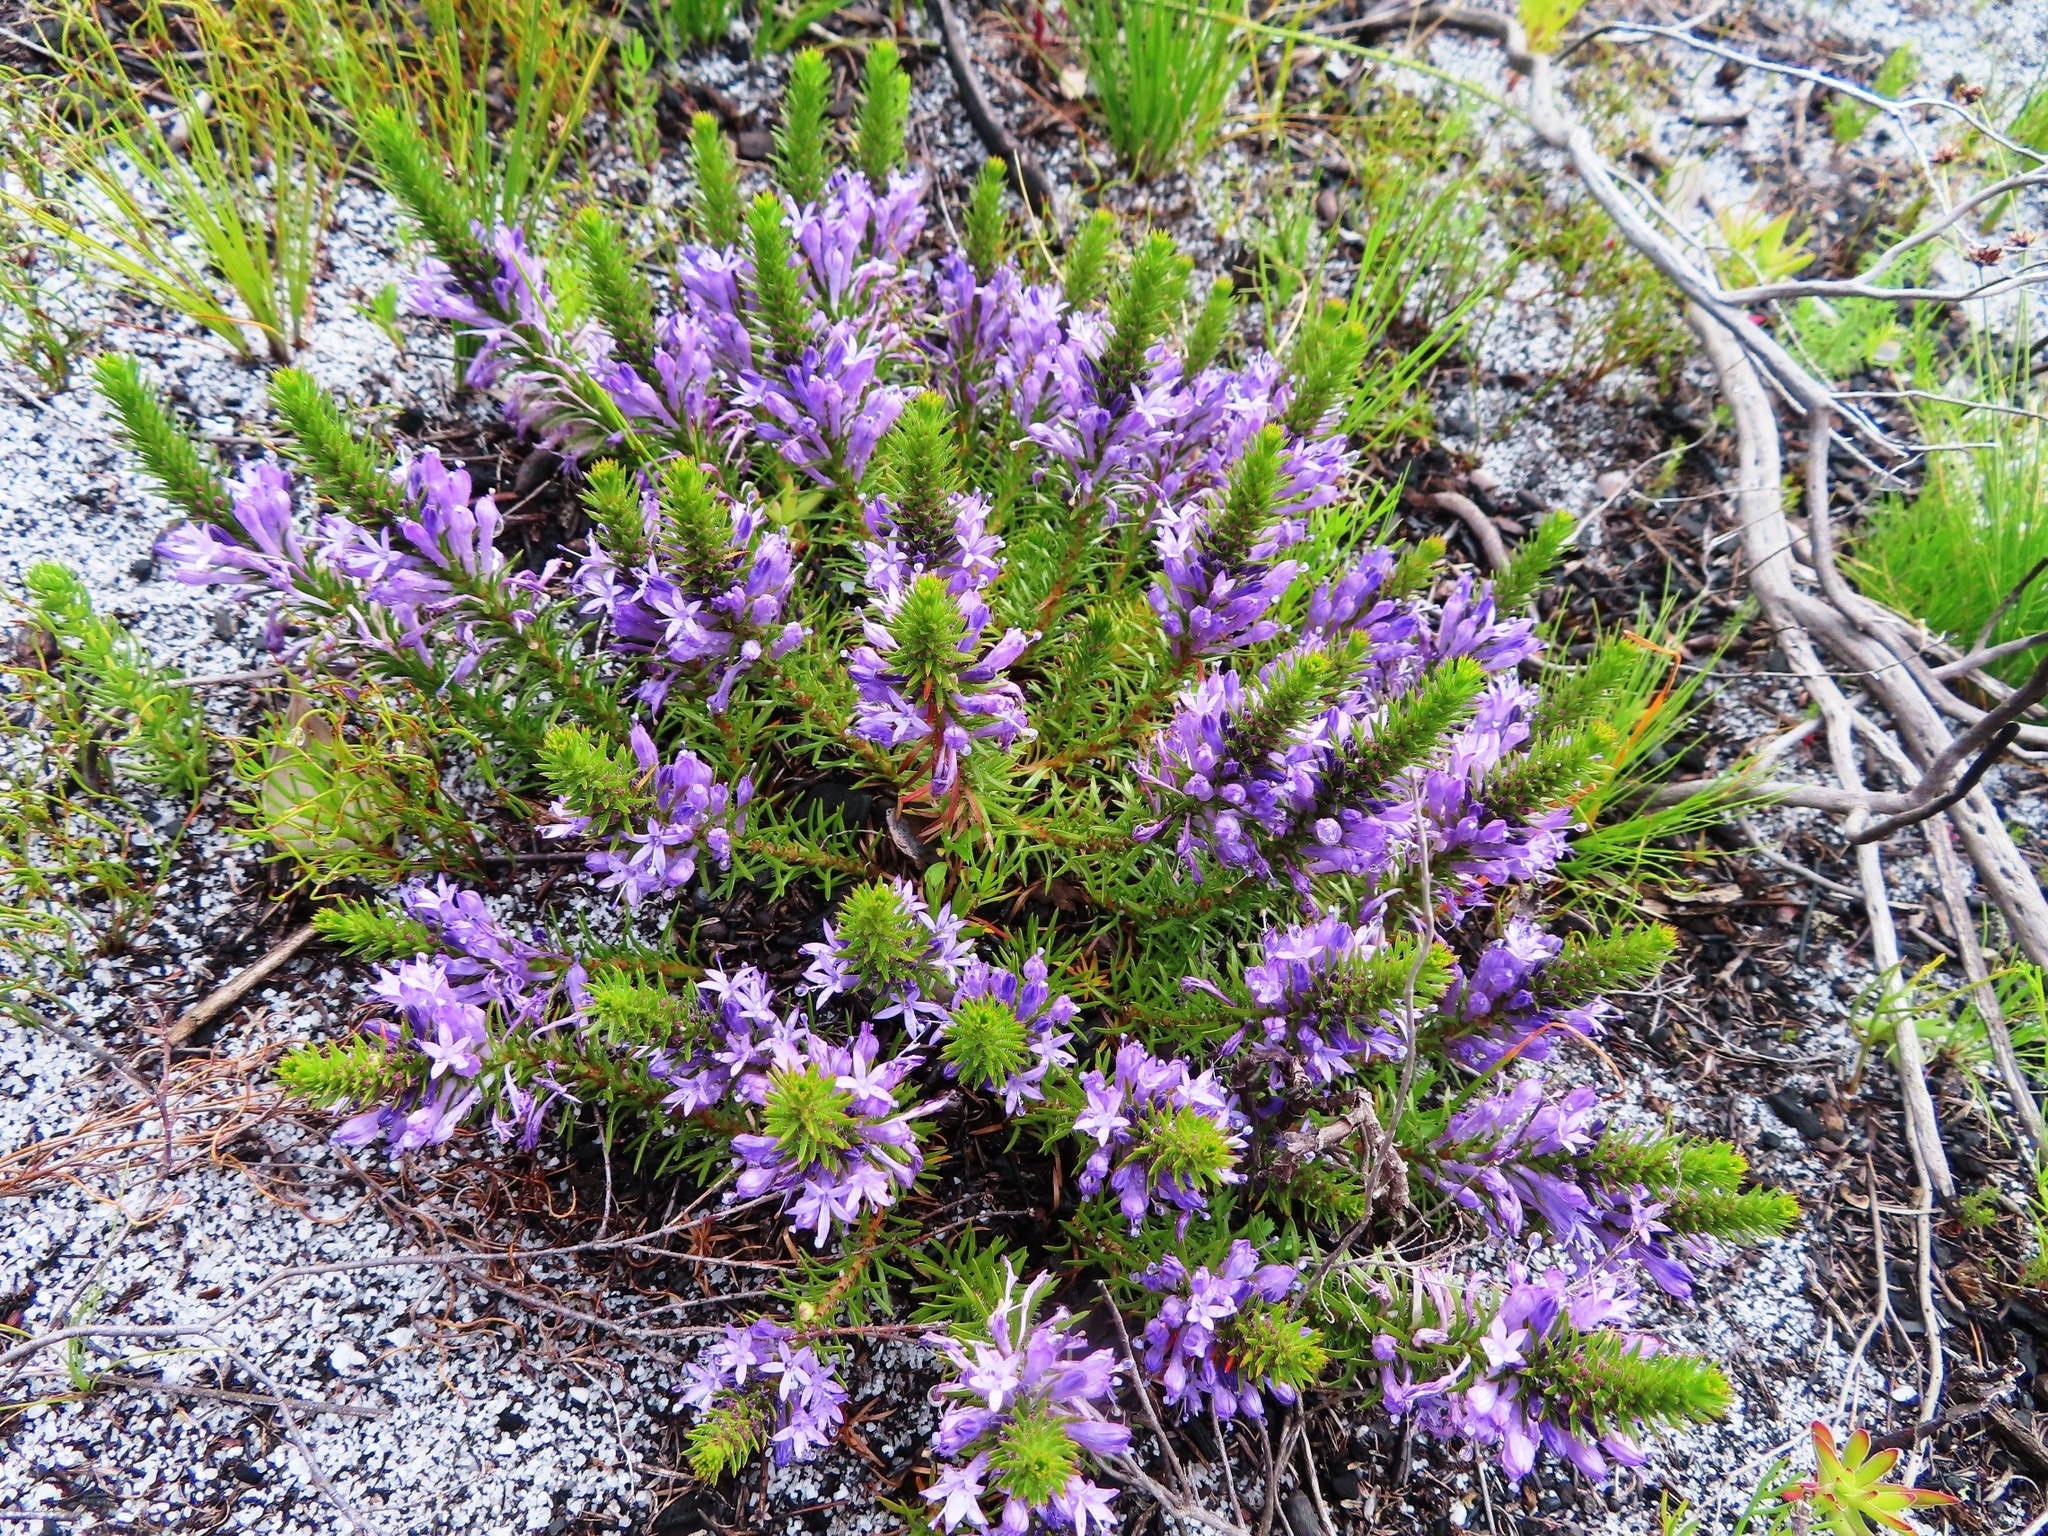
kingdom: Plantae
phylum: Tracheophyta
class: Magnoliopsida
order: Asterales
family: Campanulaceae
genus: Merciera
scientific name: Merciera azurea
